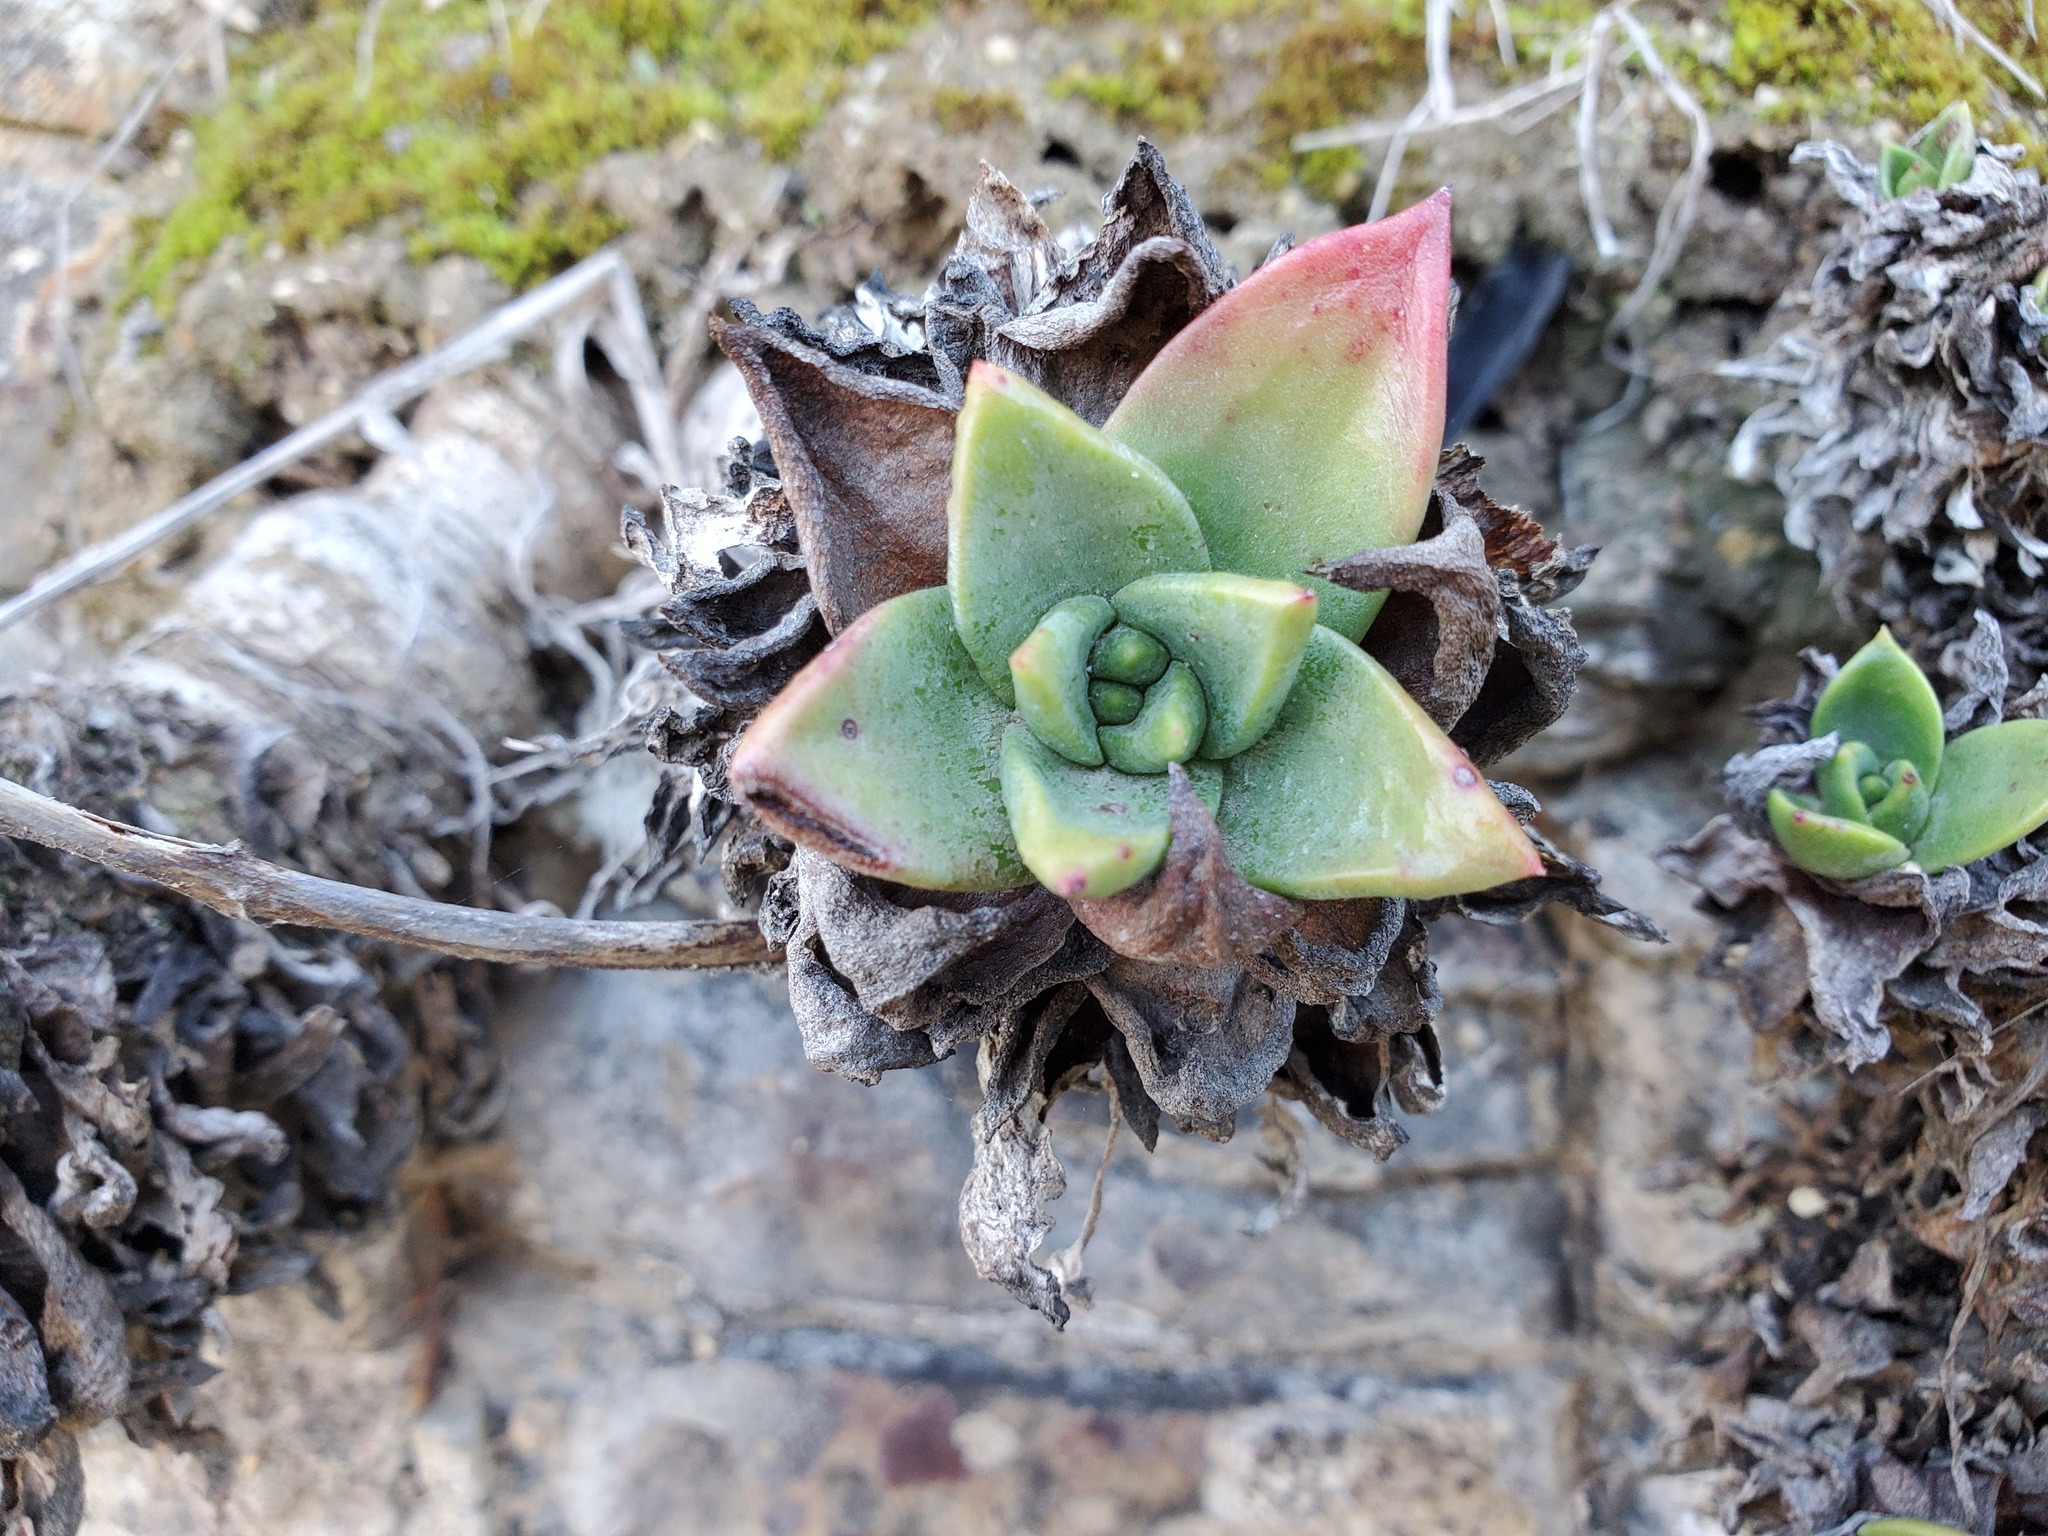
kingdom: Plantae
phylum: Tracheophyta
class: Magnoliopsida
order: Saxifragales
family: Crassulaceae
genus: Dudleya
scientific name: Dudleya caespitosa
